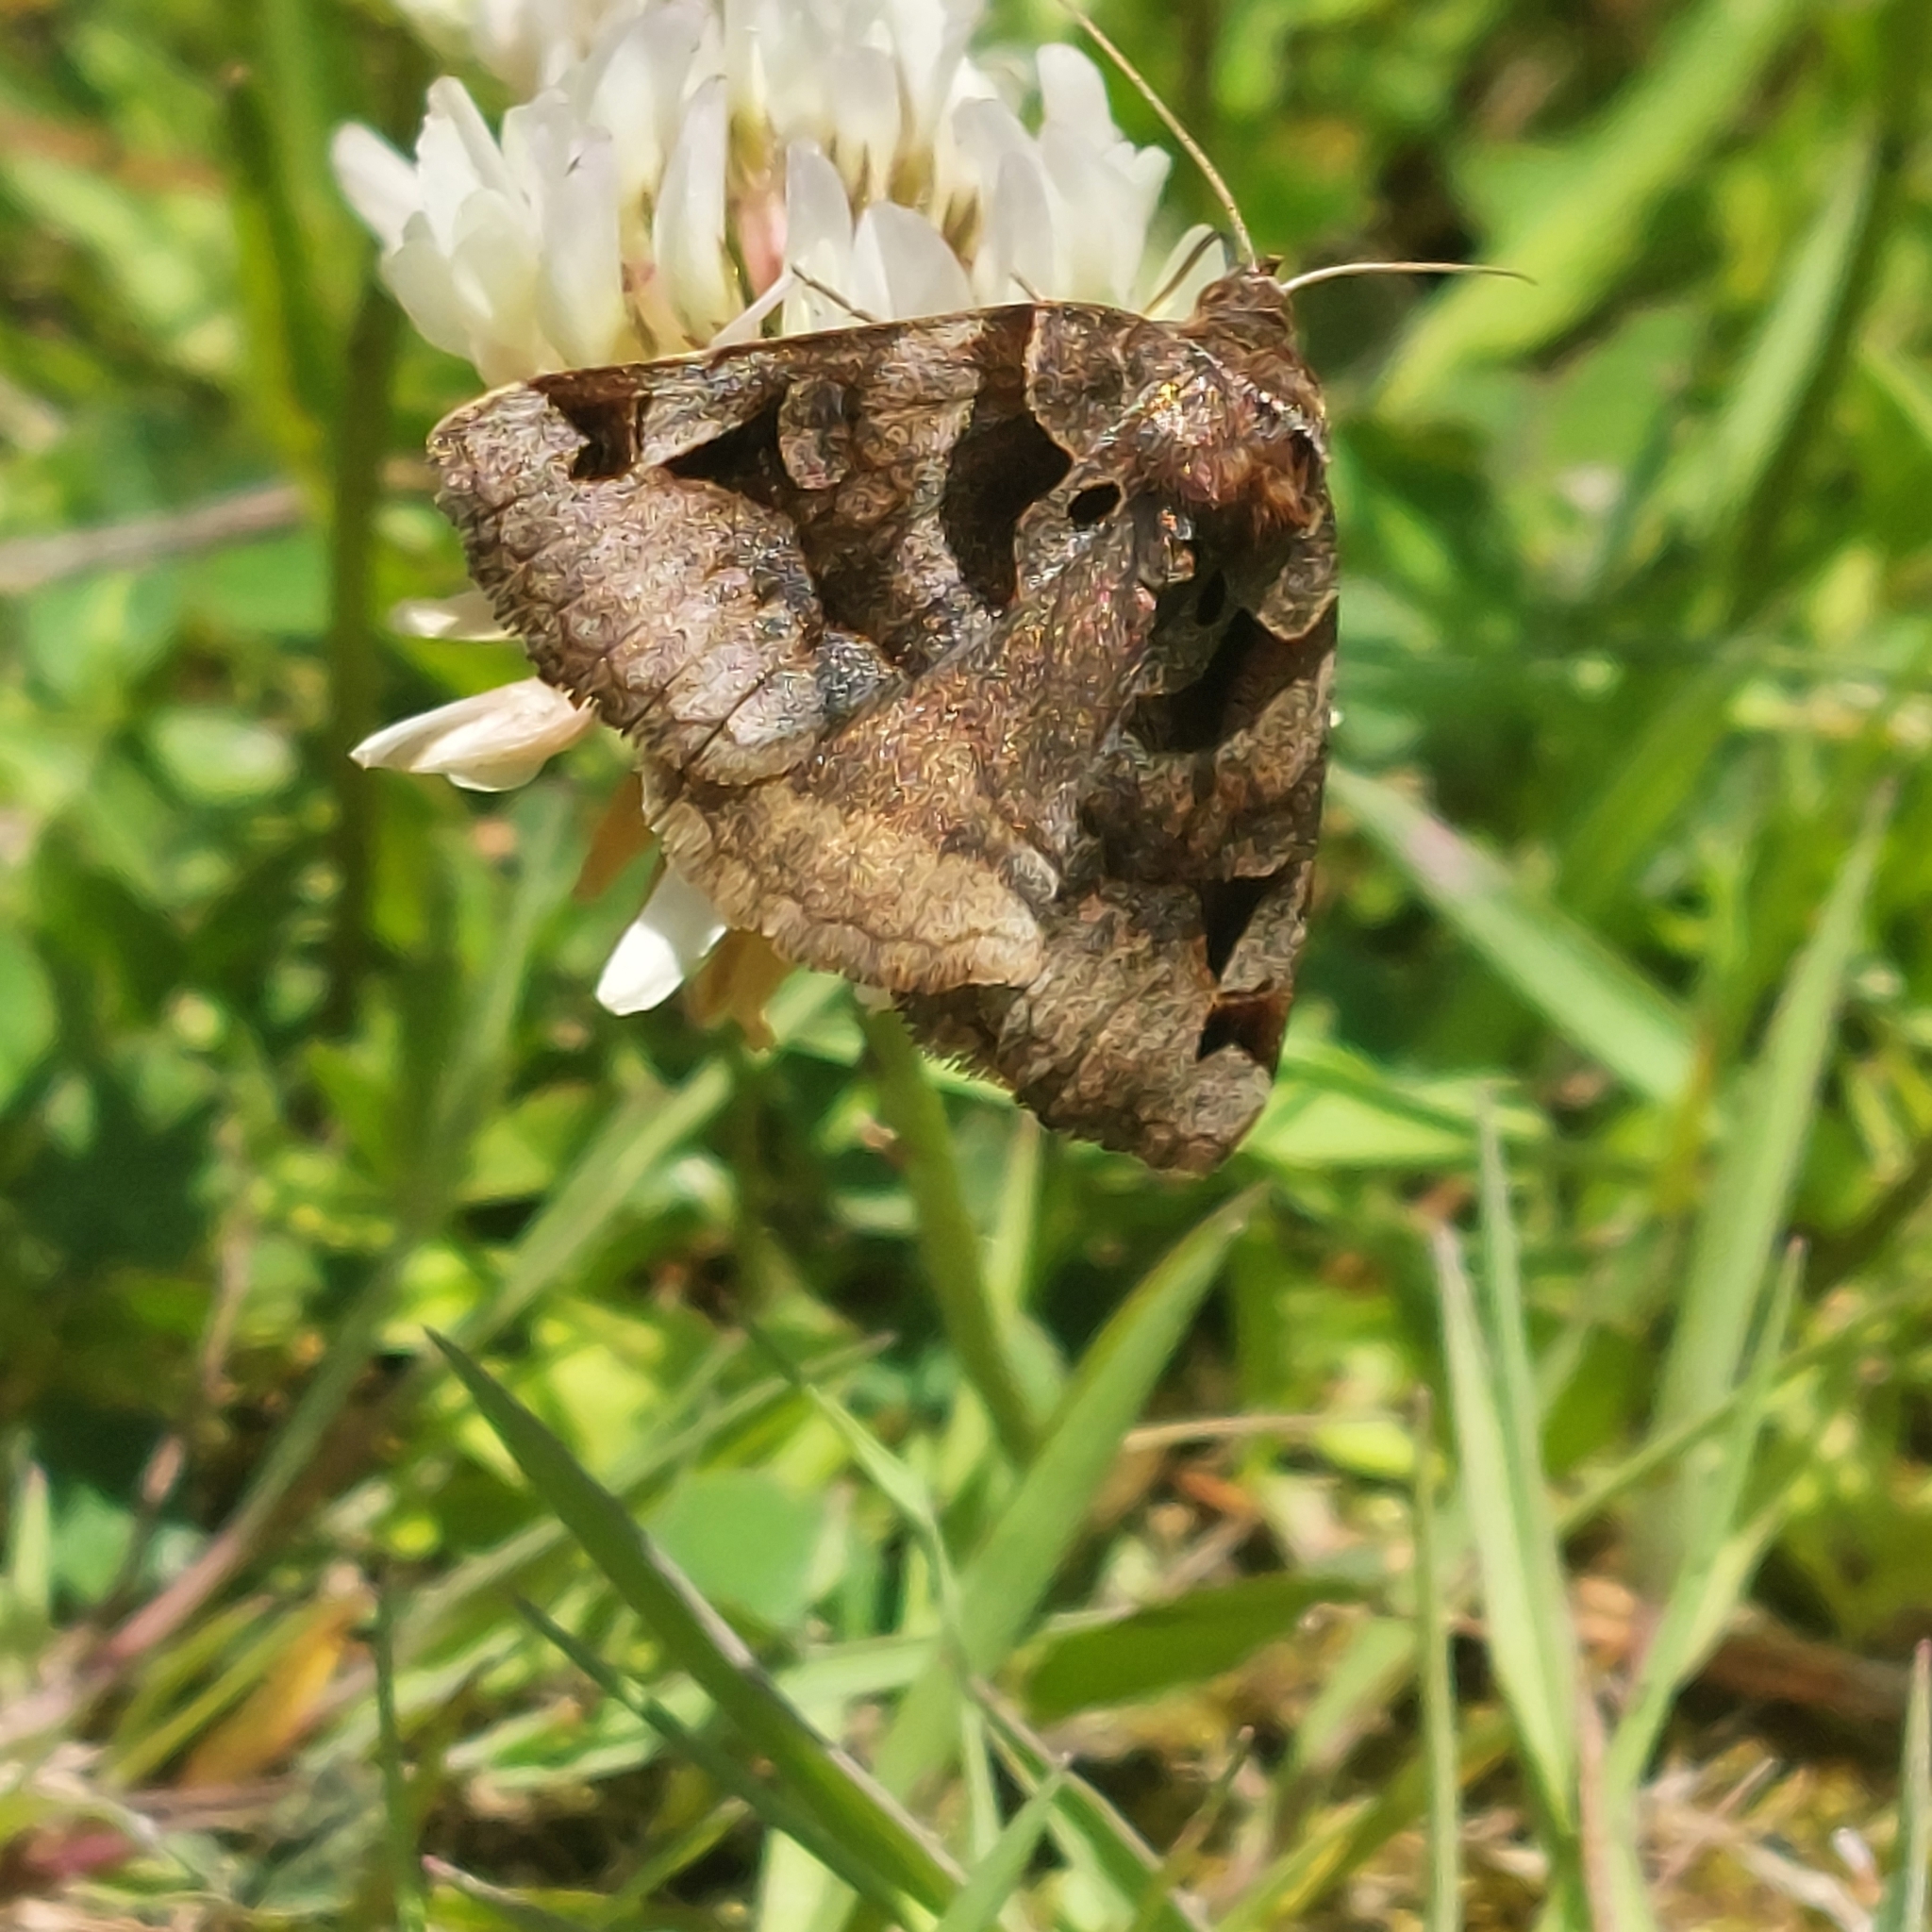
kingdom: Animalia
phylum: Arthropoda
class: Insecta
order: Lepidoptera
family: Erebidae
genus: Euclidia
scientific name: Euclidia cuspidea
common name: Toothed somberwing
